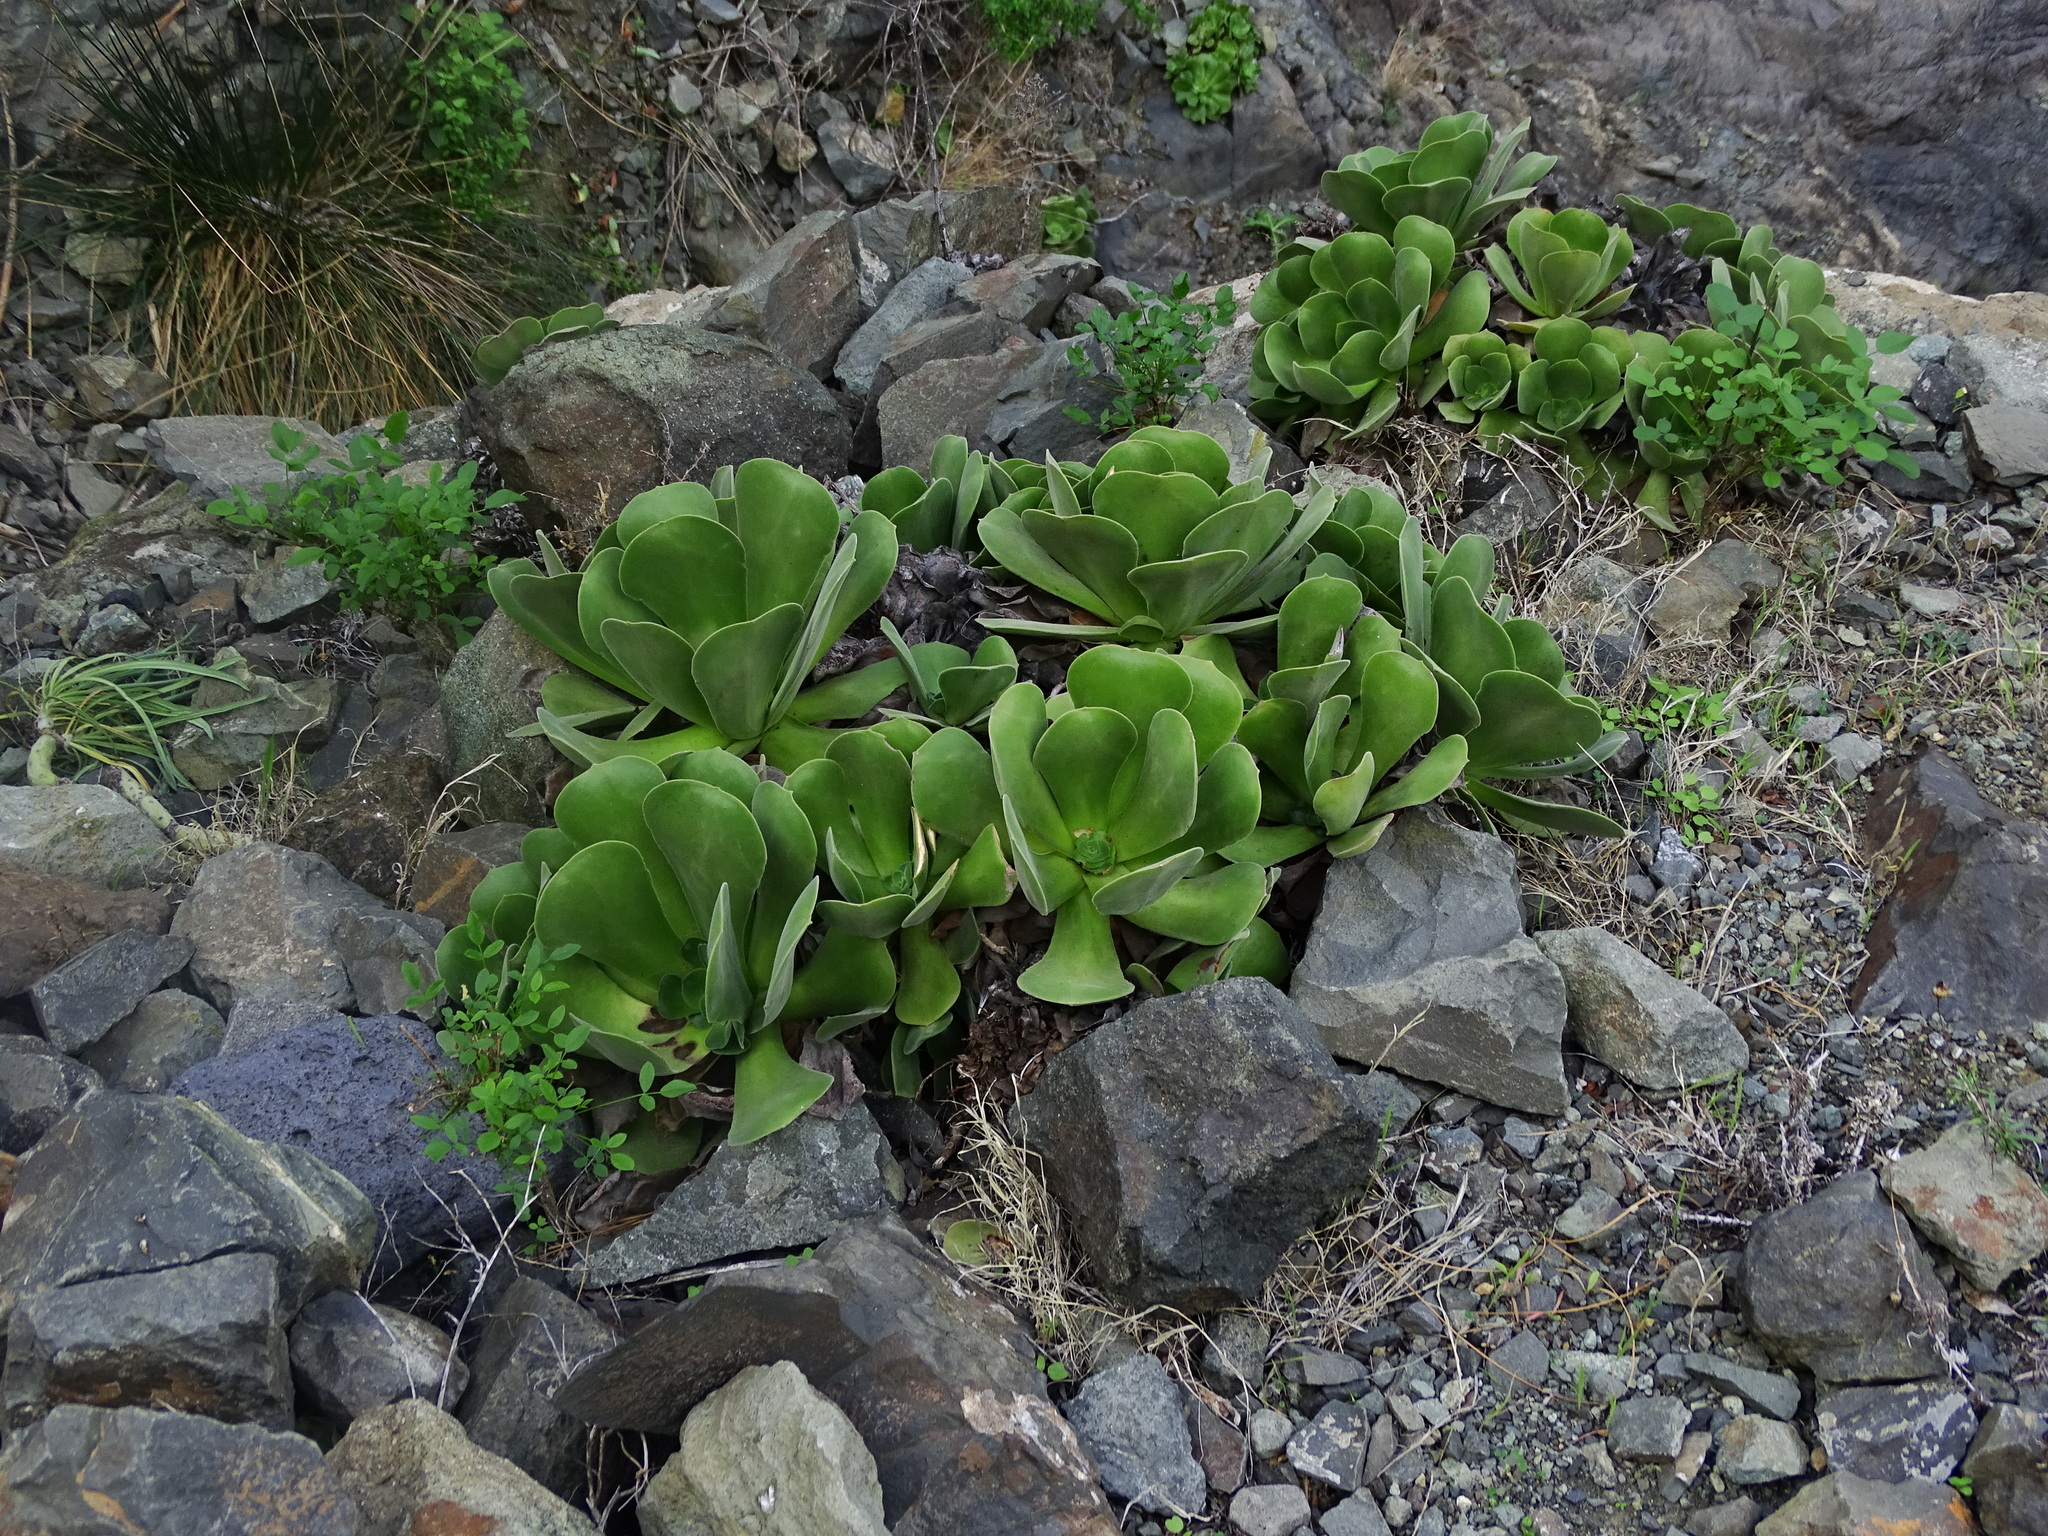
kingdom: Plantae
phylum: Tracheophyta
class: Magnoliopsida
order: Saxifragales
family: Crassulaceae
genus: Aeonium
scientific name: Aeonium canariense
